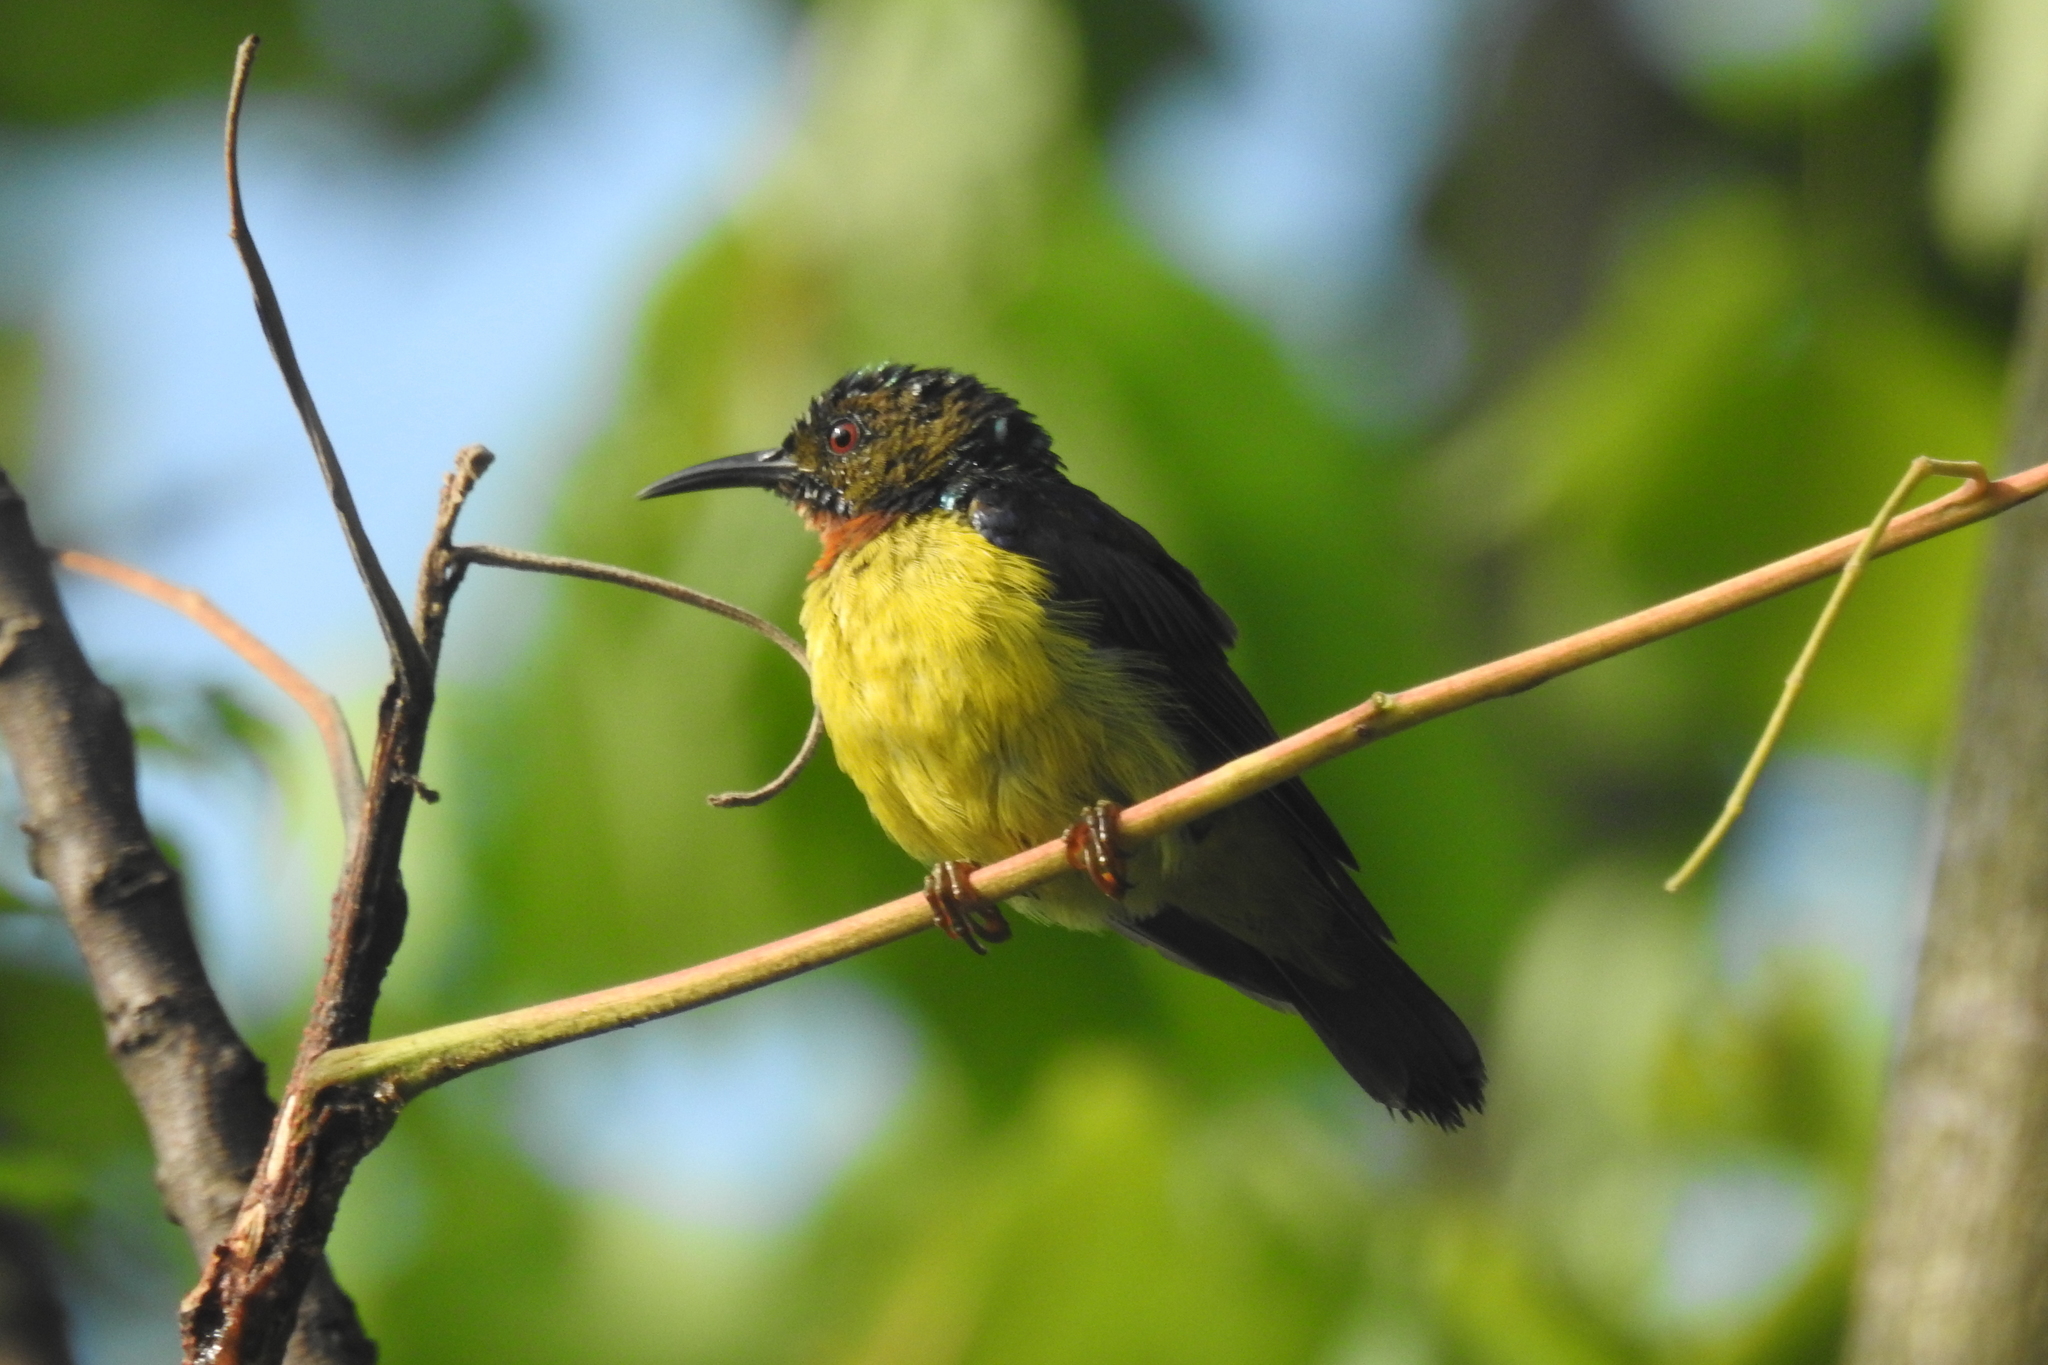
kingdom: Animalia
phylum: Chordata
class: Aves
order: Passeriformes
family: Nectariniidae
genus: Anthreptes
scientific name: Anthreptes malacensis
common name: Brown-throated sunbird
